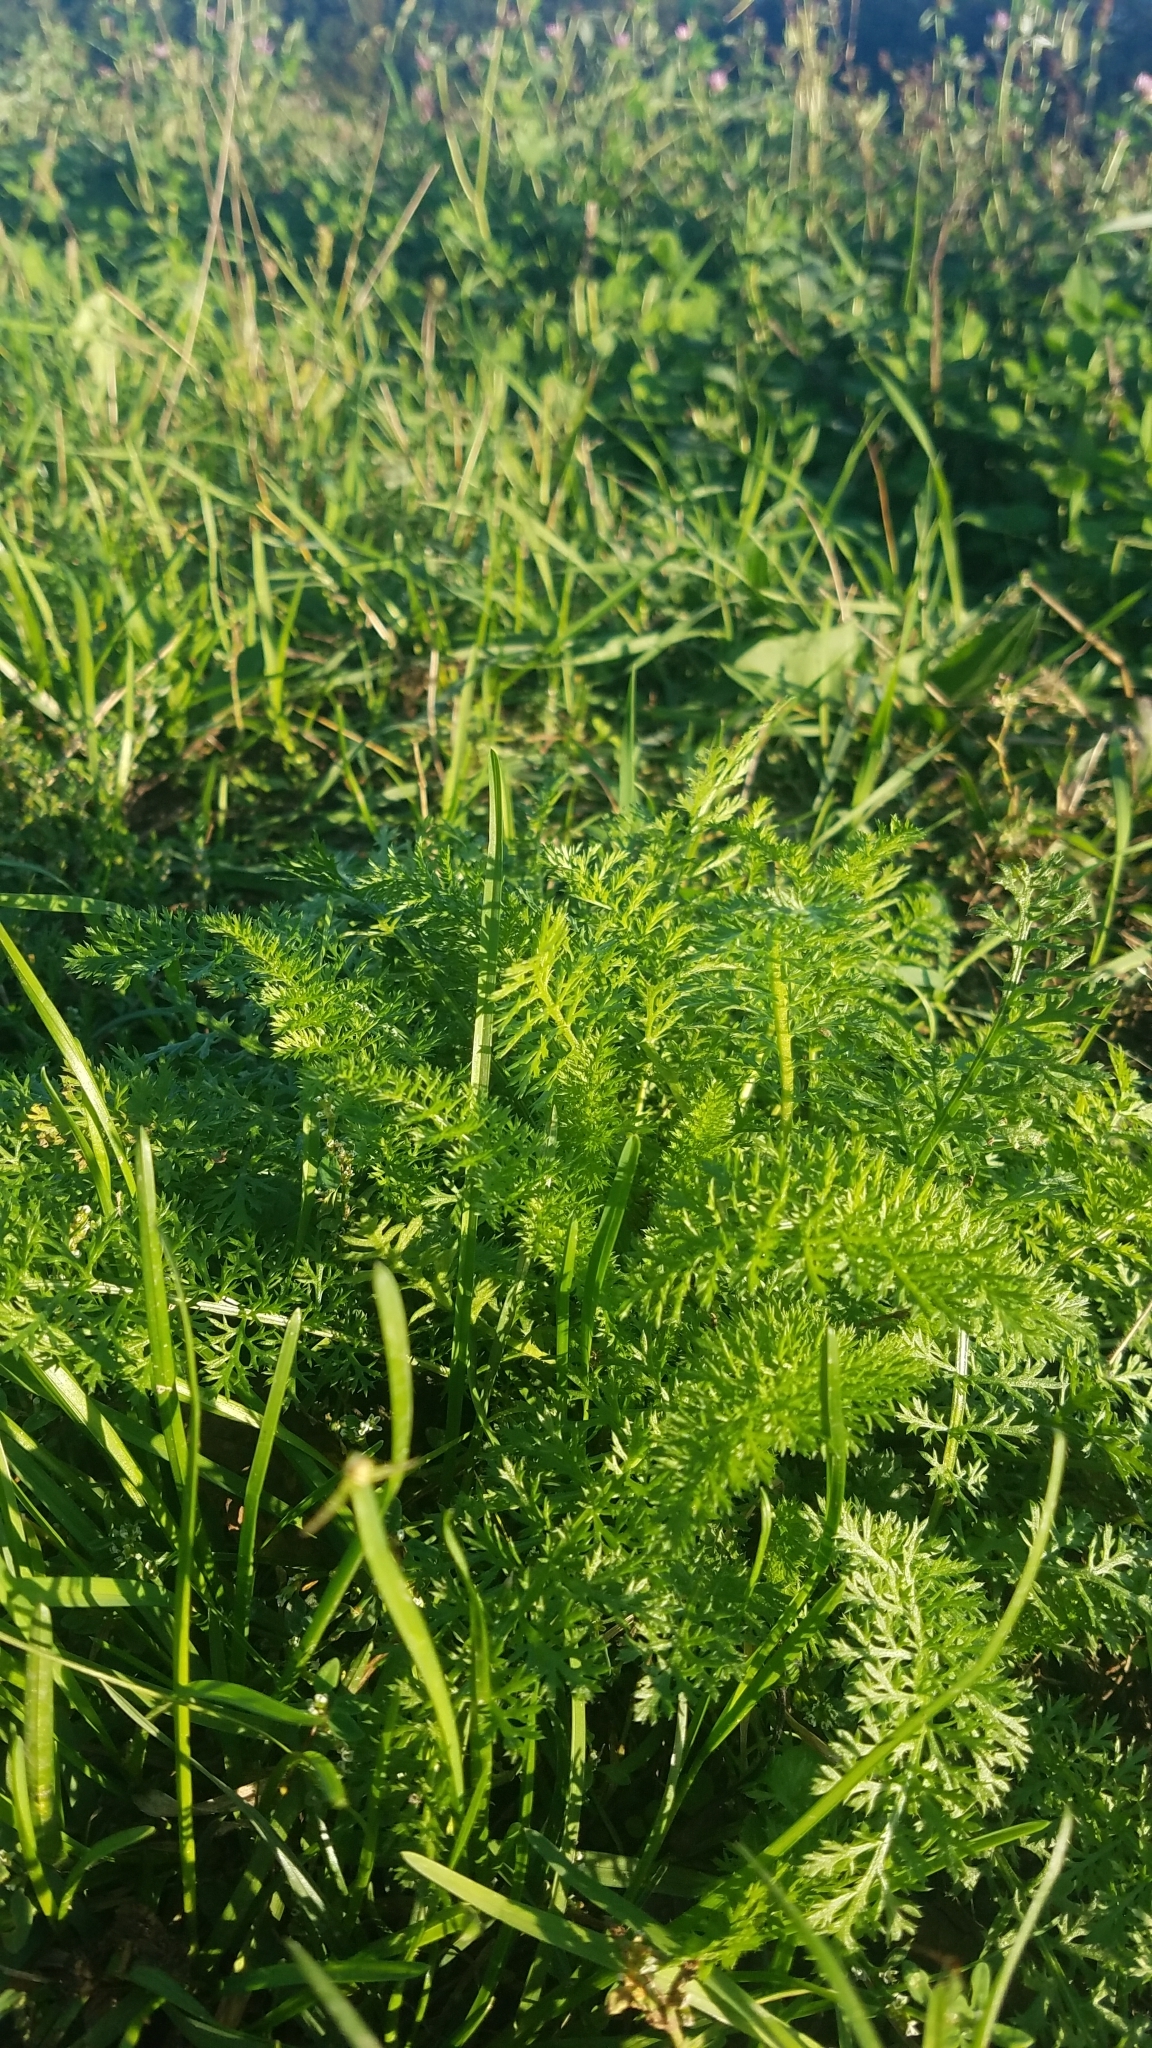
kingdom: Plantae
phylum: Tracheophyta
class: Magnoliopsida
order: Asterales
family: Asteraceae
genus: Achillea
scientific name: Achillea millefolium
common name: Yarrow
